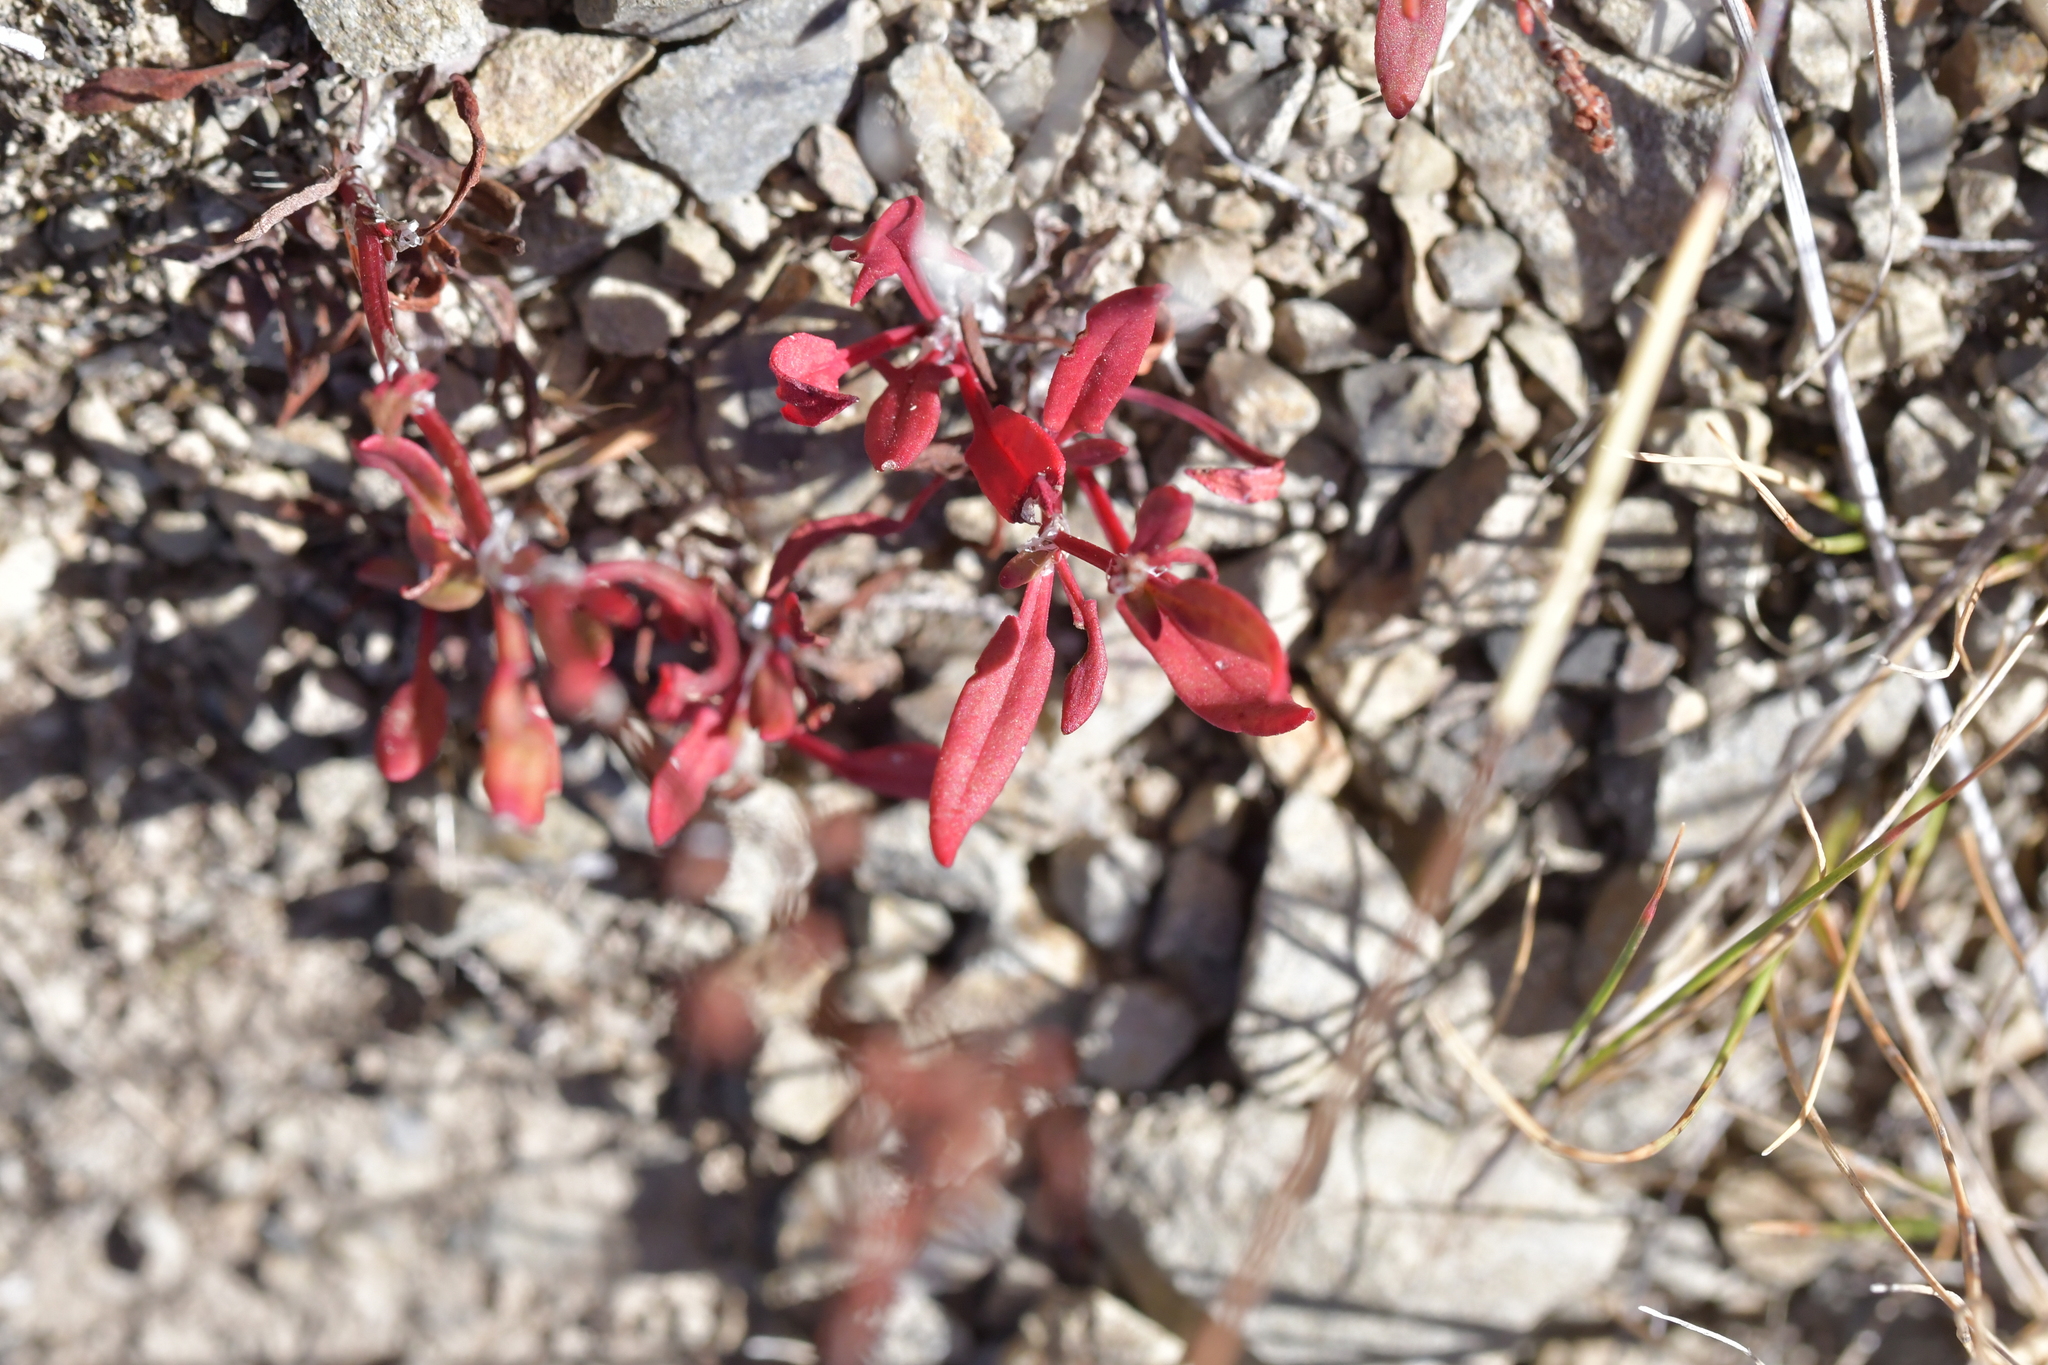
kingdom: Plantae
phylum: Tracheophyta
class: Magnoliopsida
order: Caryophyllales
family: Polygonaceae
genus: Rumex
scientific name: Rumex acetosella
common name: Common sheep sorrel
